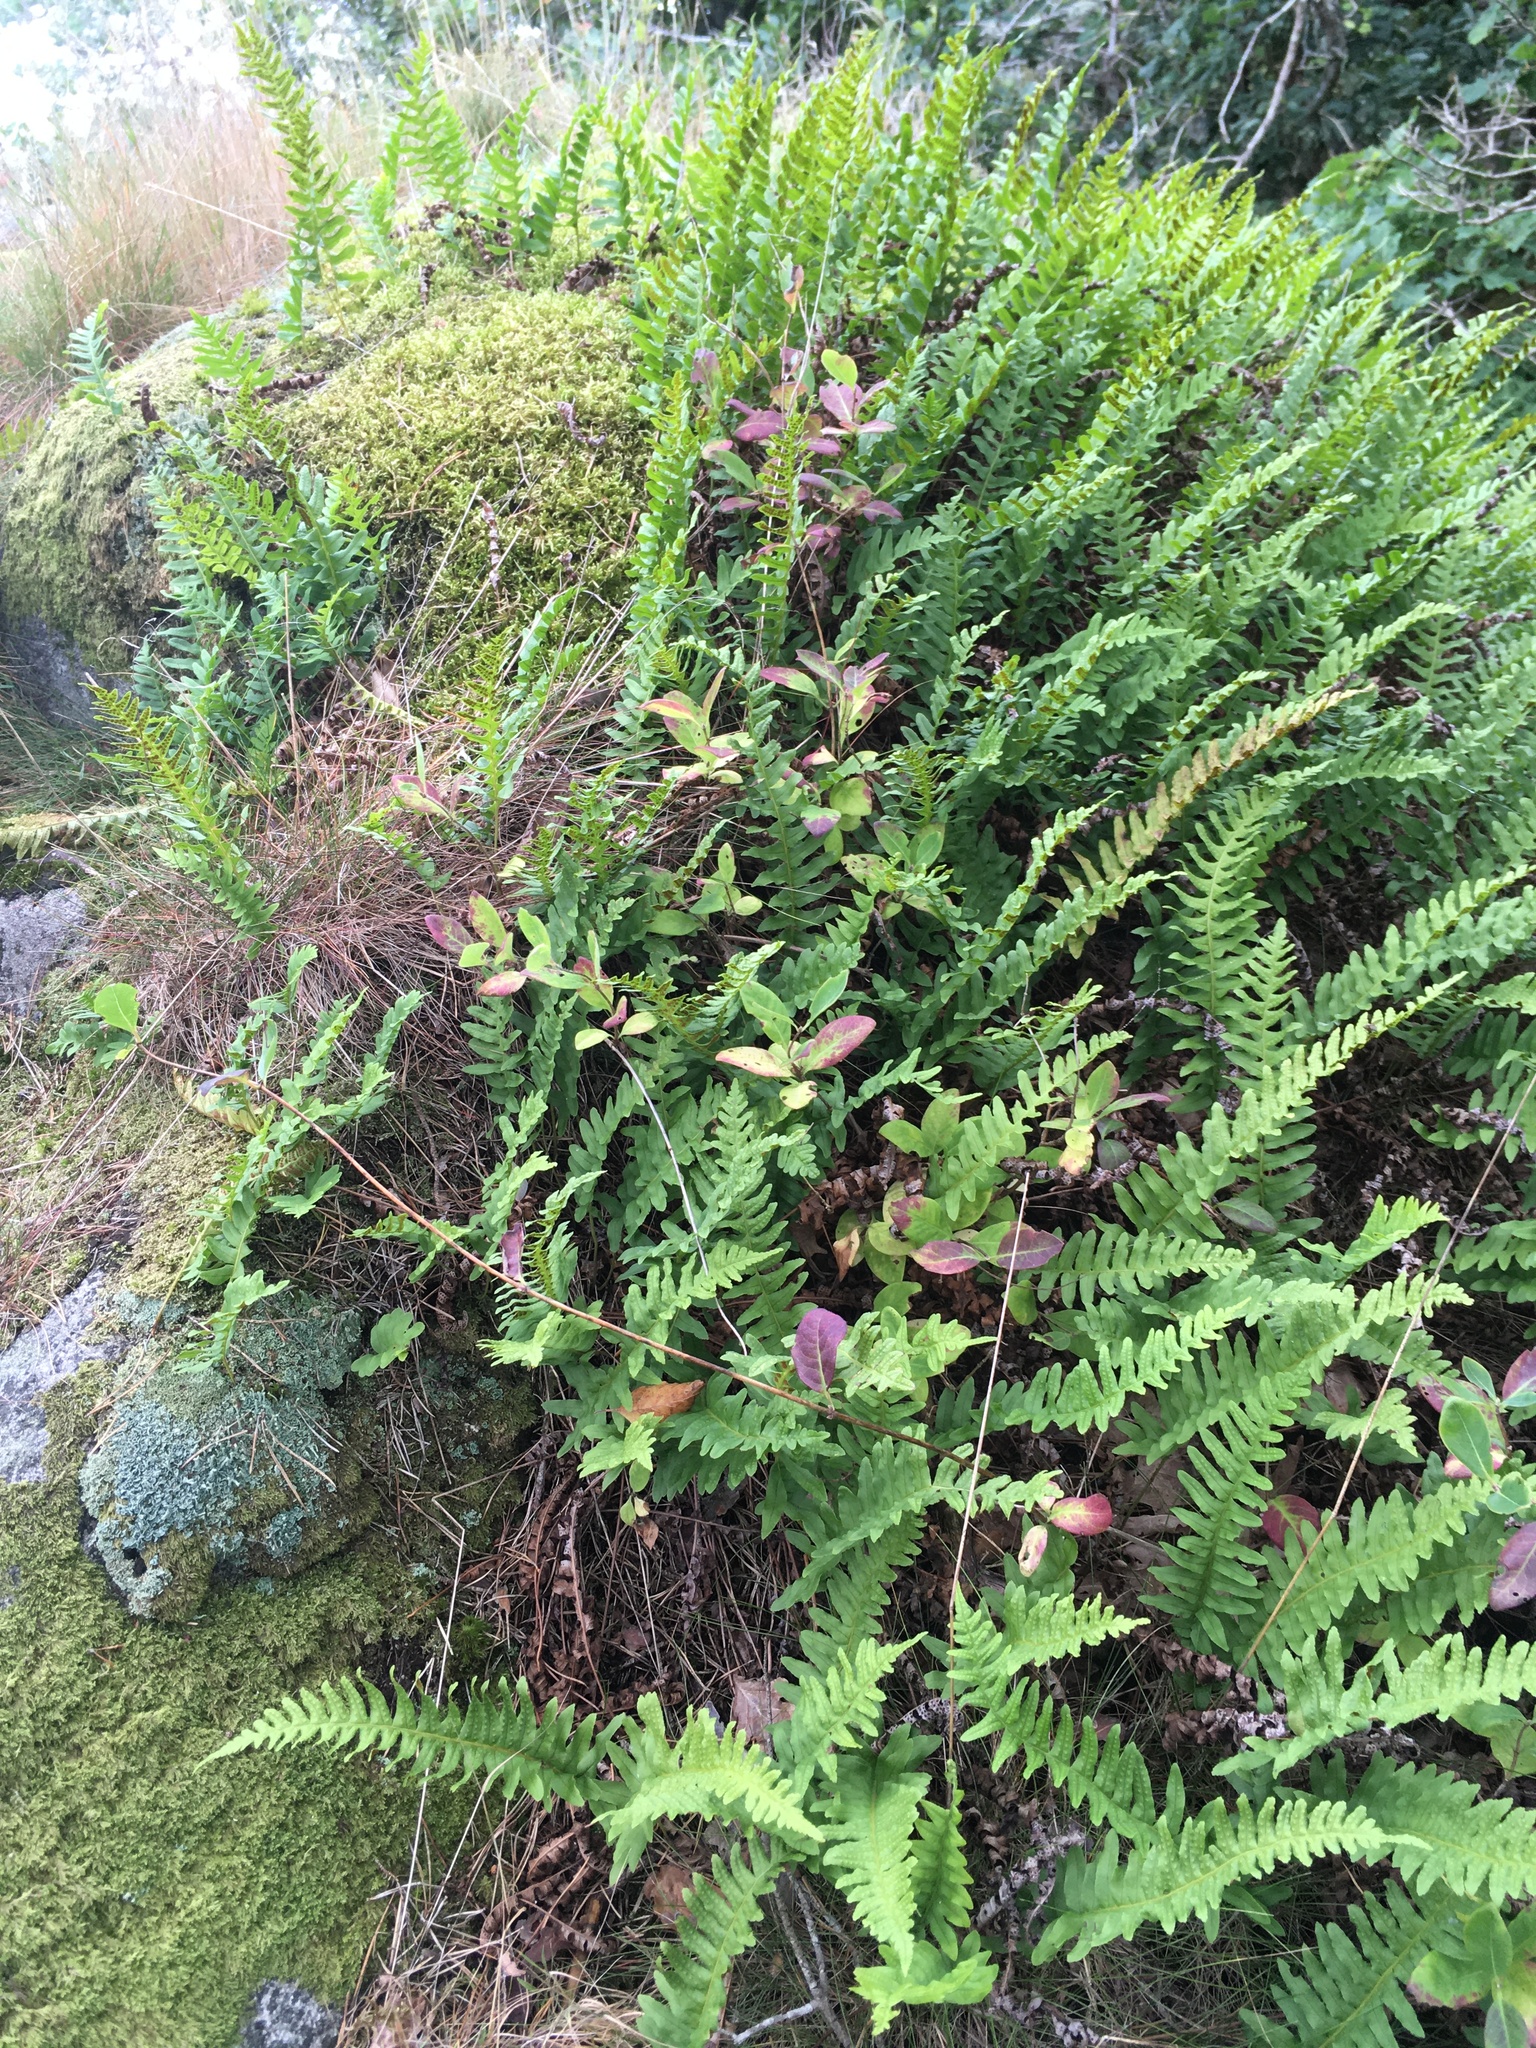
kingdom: Plantae
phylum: Tracheophyta
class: Polypodiopsida
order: Polypodiales
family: Polypodiaceae
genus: Polypodium
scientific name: Polypodium vulgare
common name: Common polypody
